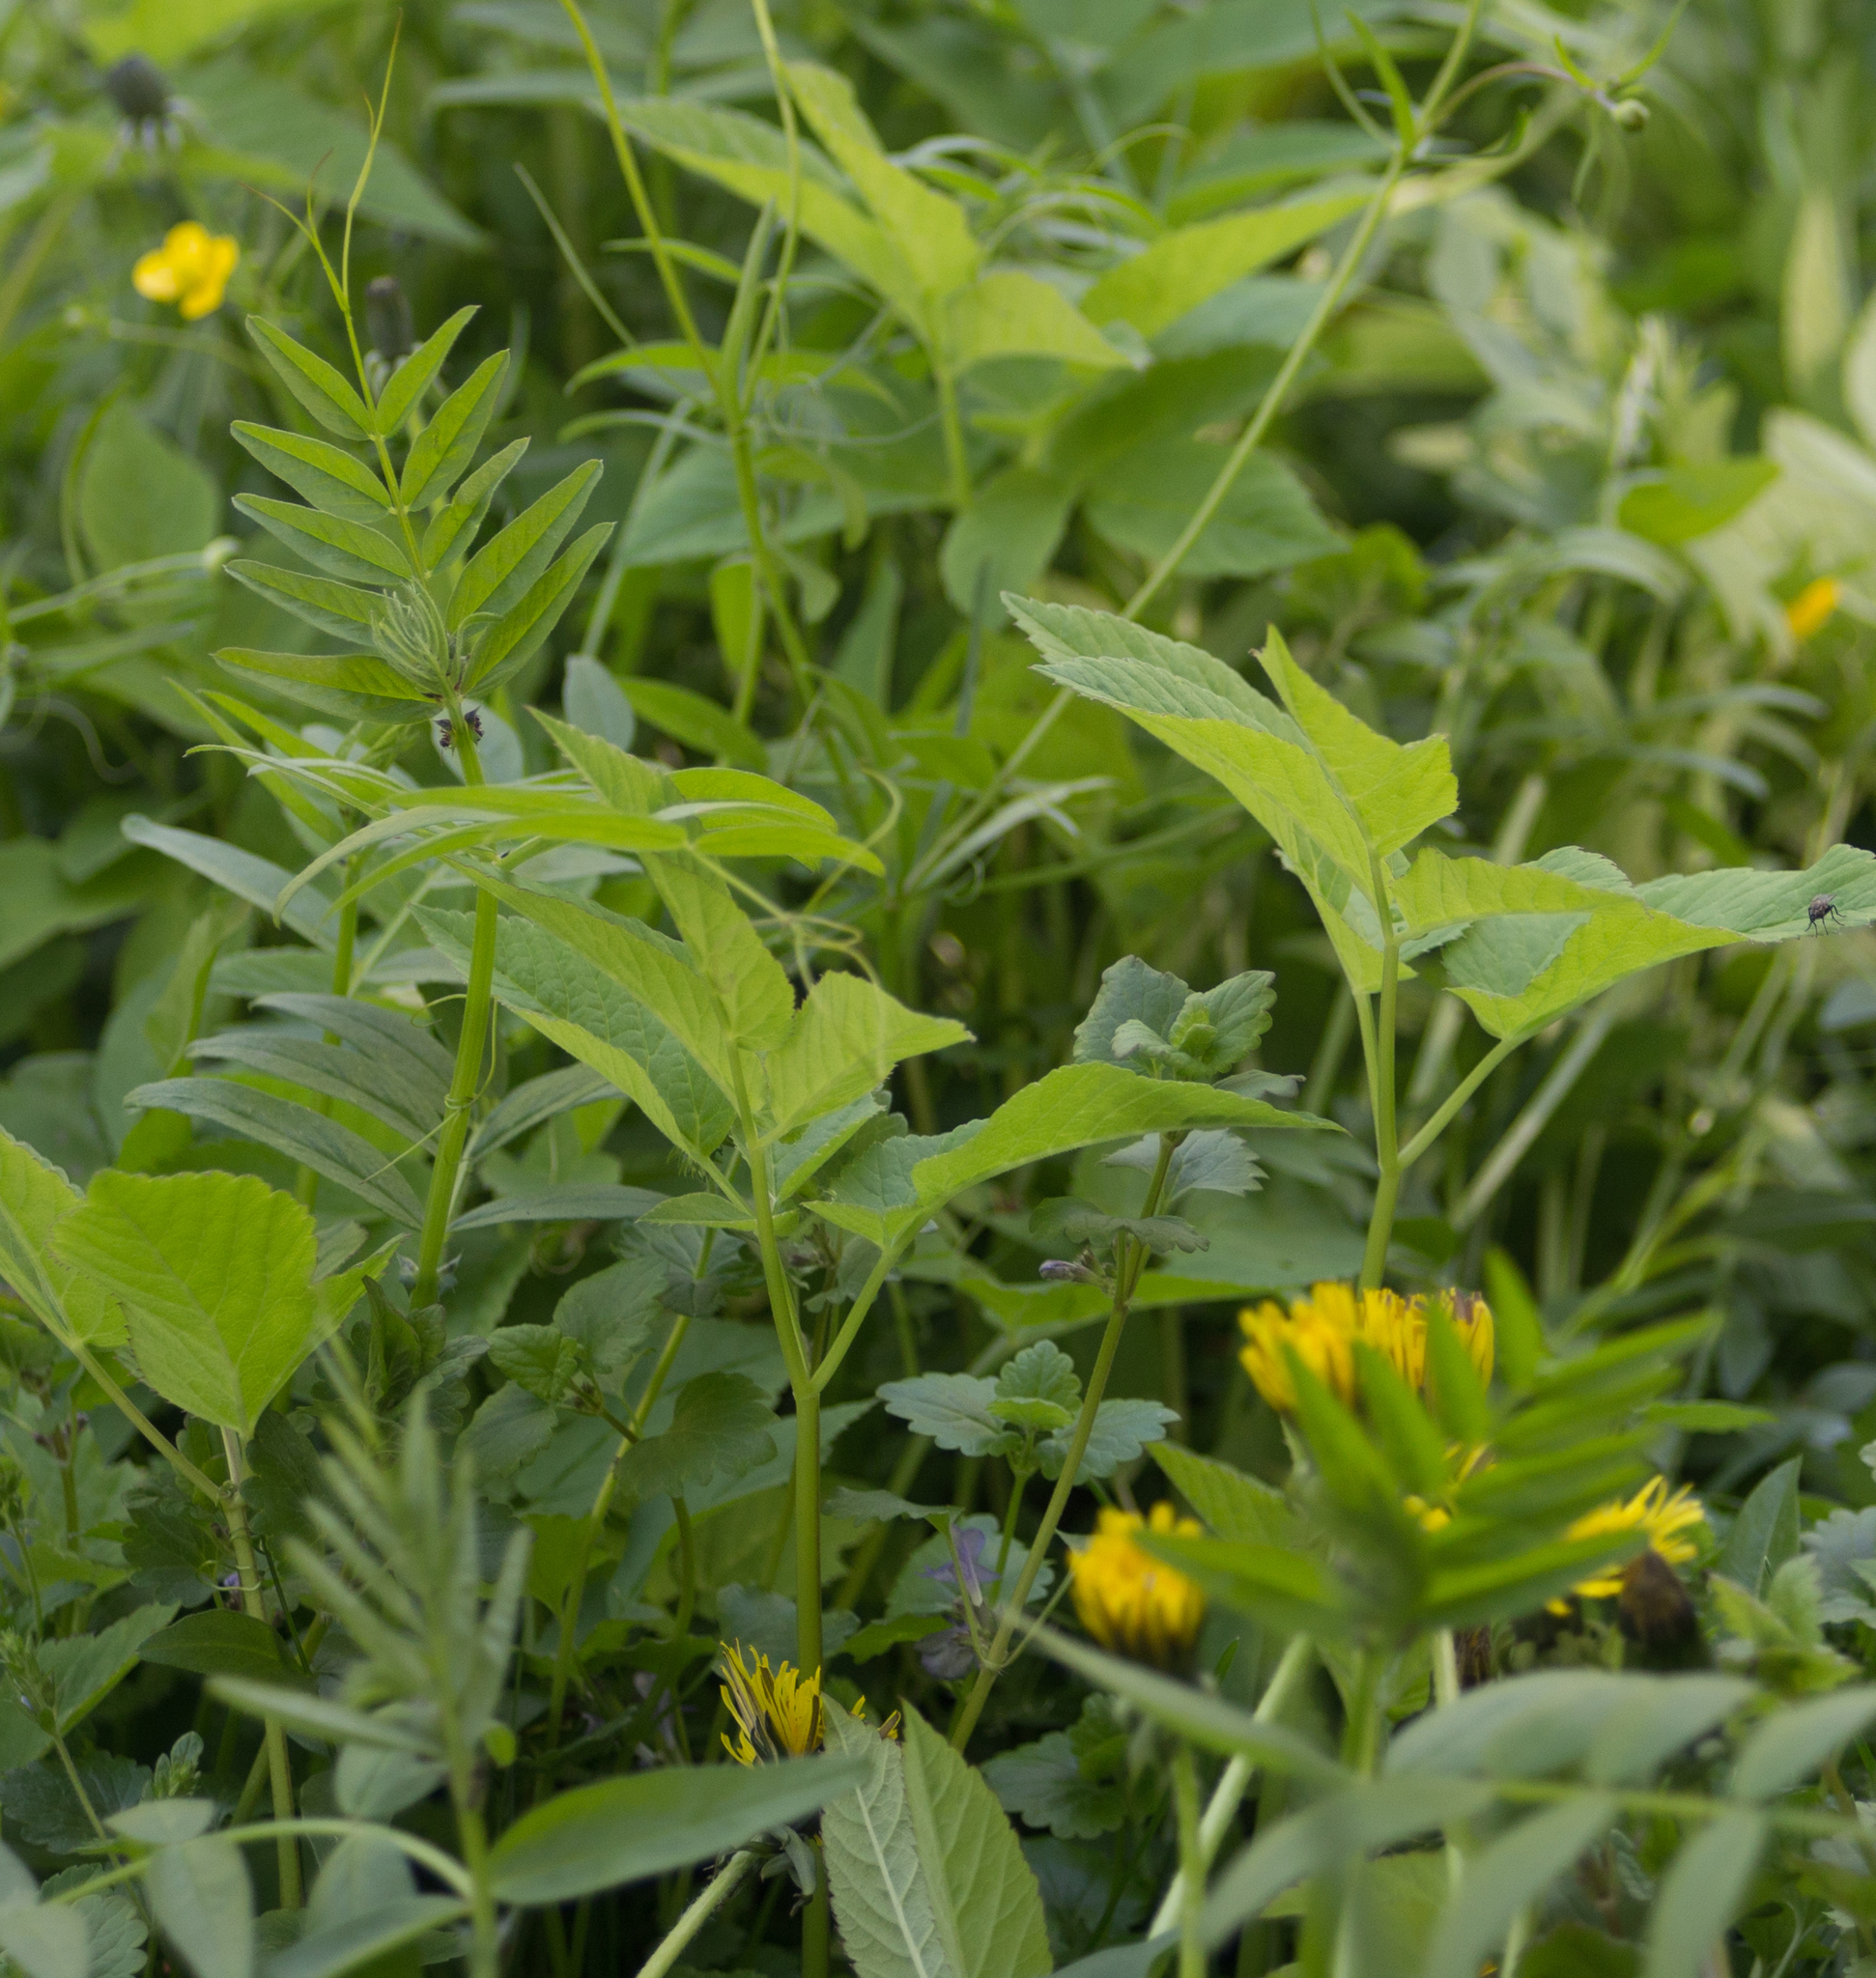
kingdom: Plantae
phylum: Tracheophyta
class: Magnoliopsida
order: Fabales
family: Fabaceae
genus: Vicia
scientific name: Vicia sepium
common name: Bush vetch
